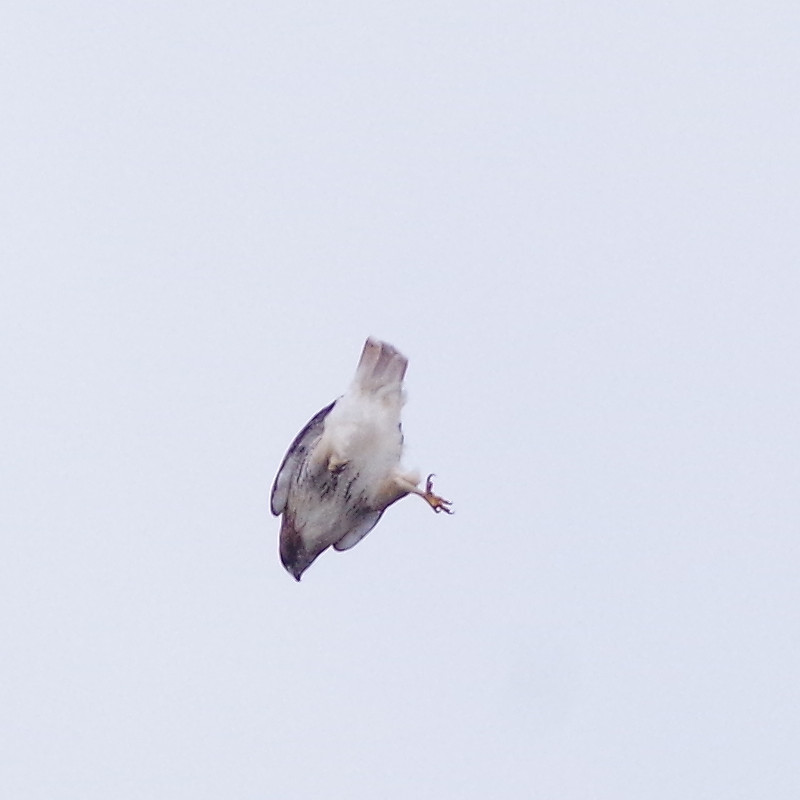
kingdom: Animalia
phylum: Chordata
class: Aves
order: Accipitriformes
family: Accipitridae
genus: Buteo
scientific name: Buteo jamaicensis
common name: Red-tailed hawk
